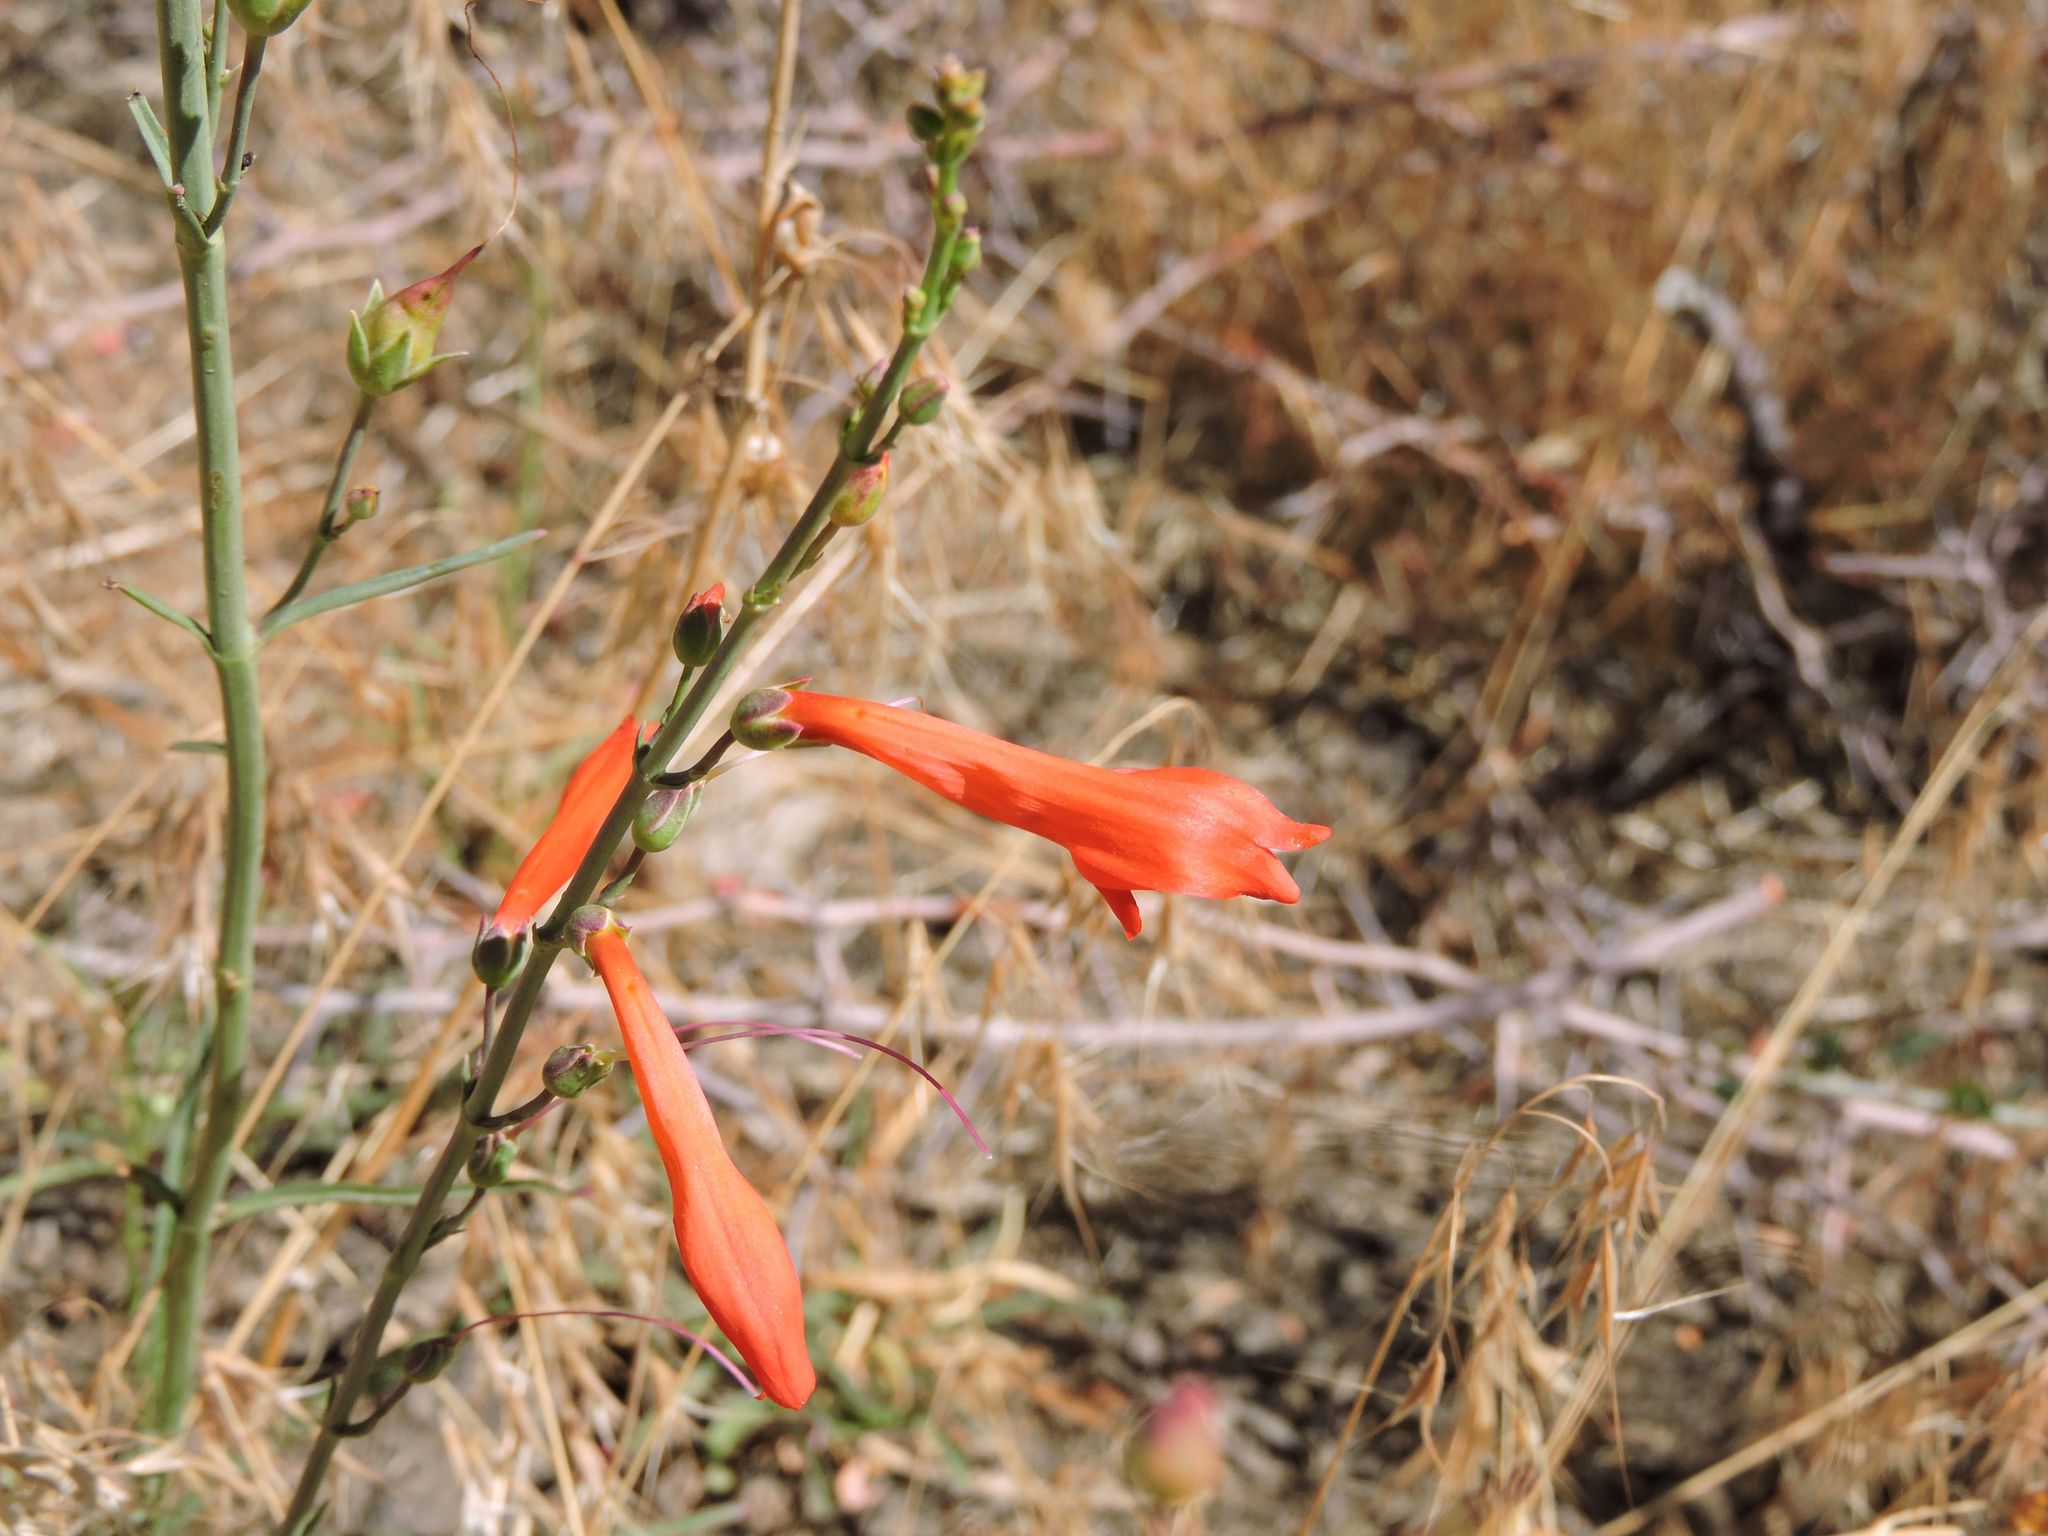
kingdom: Plantae
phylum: Tracheophyta
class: Magnoliopsida
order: Lamiales
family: Plantaginaceae
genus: Penstemon
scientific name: Penstemon labrosus
